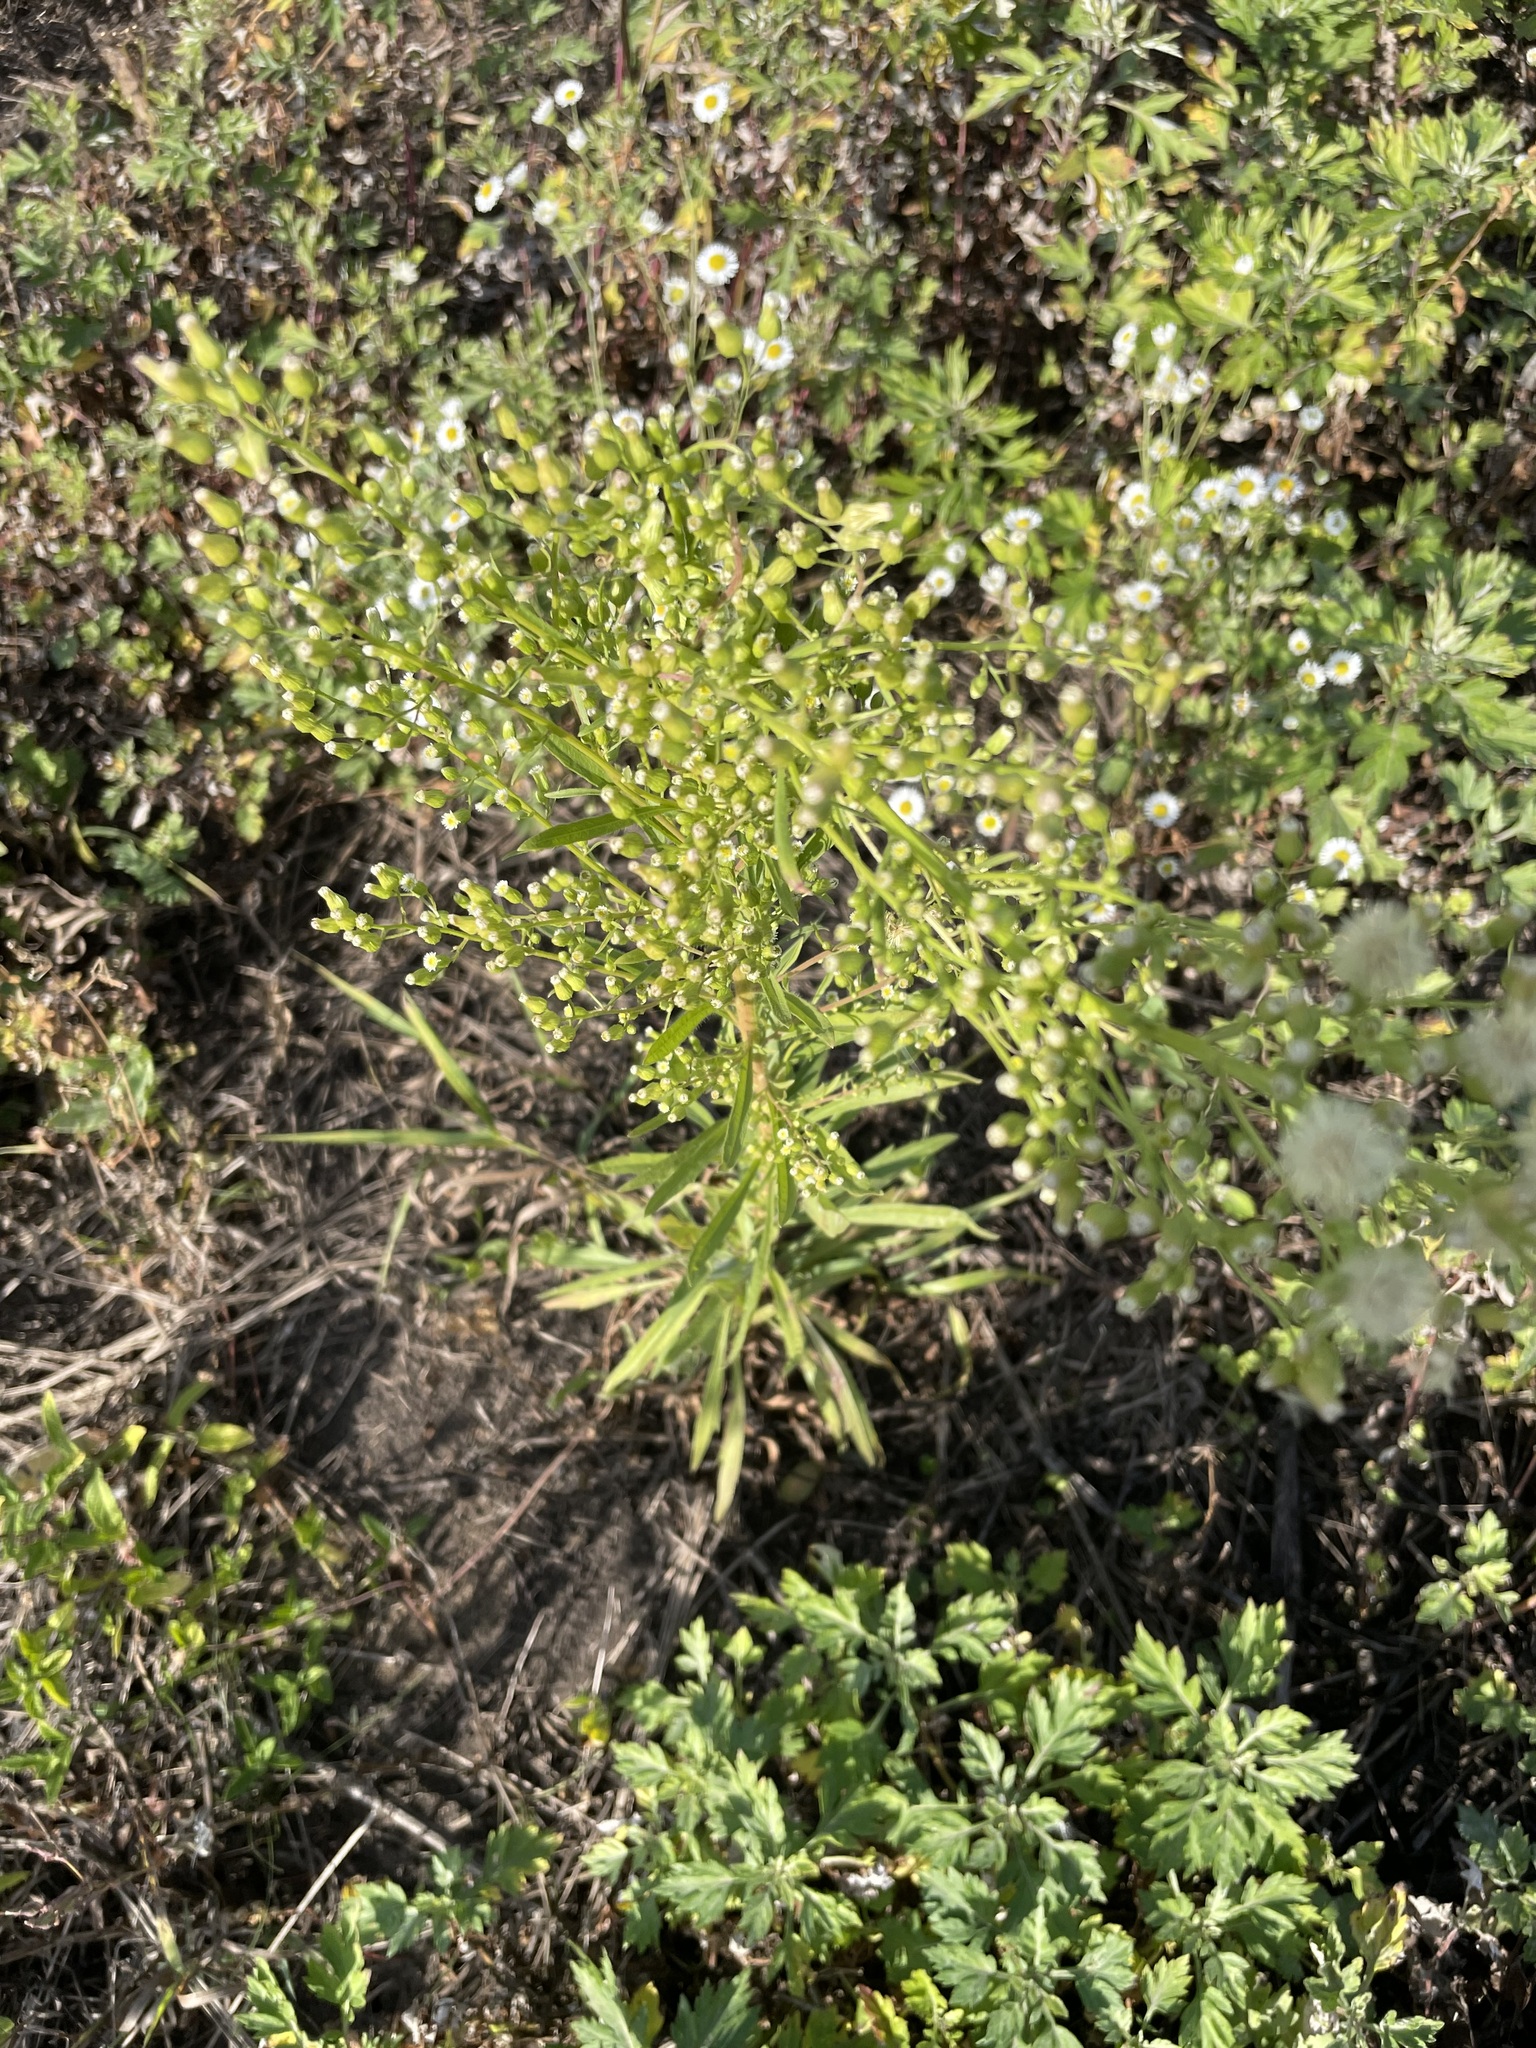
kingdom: Plantae
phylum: Tracheophyta
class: Magnoliopsida
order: Asterales
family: Asteraceae
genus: Erigeron
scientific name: Erigeron canadensis
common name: Canadian fleabane
